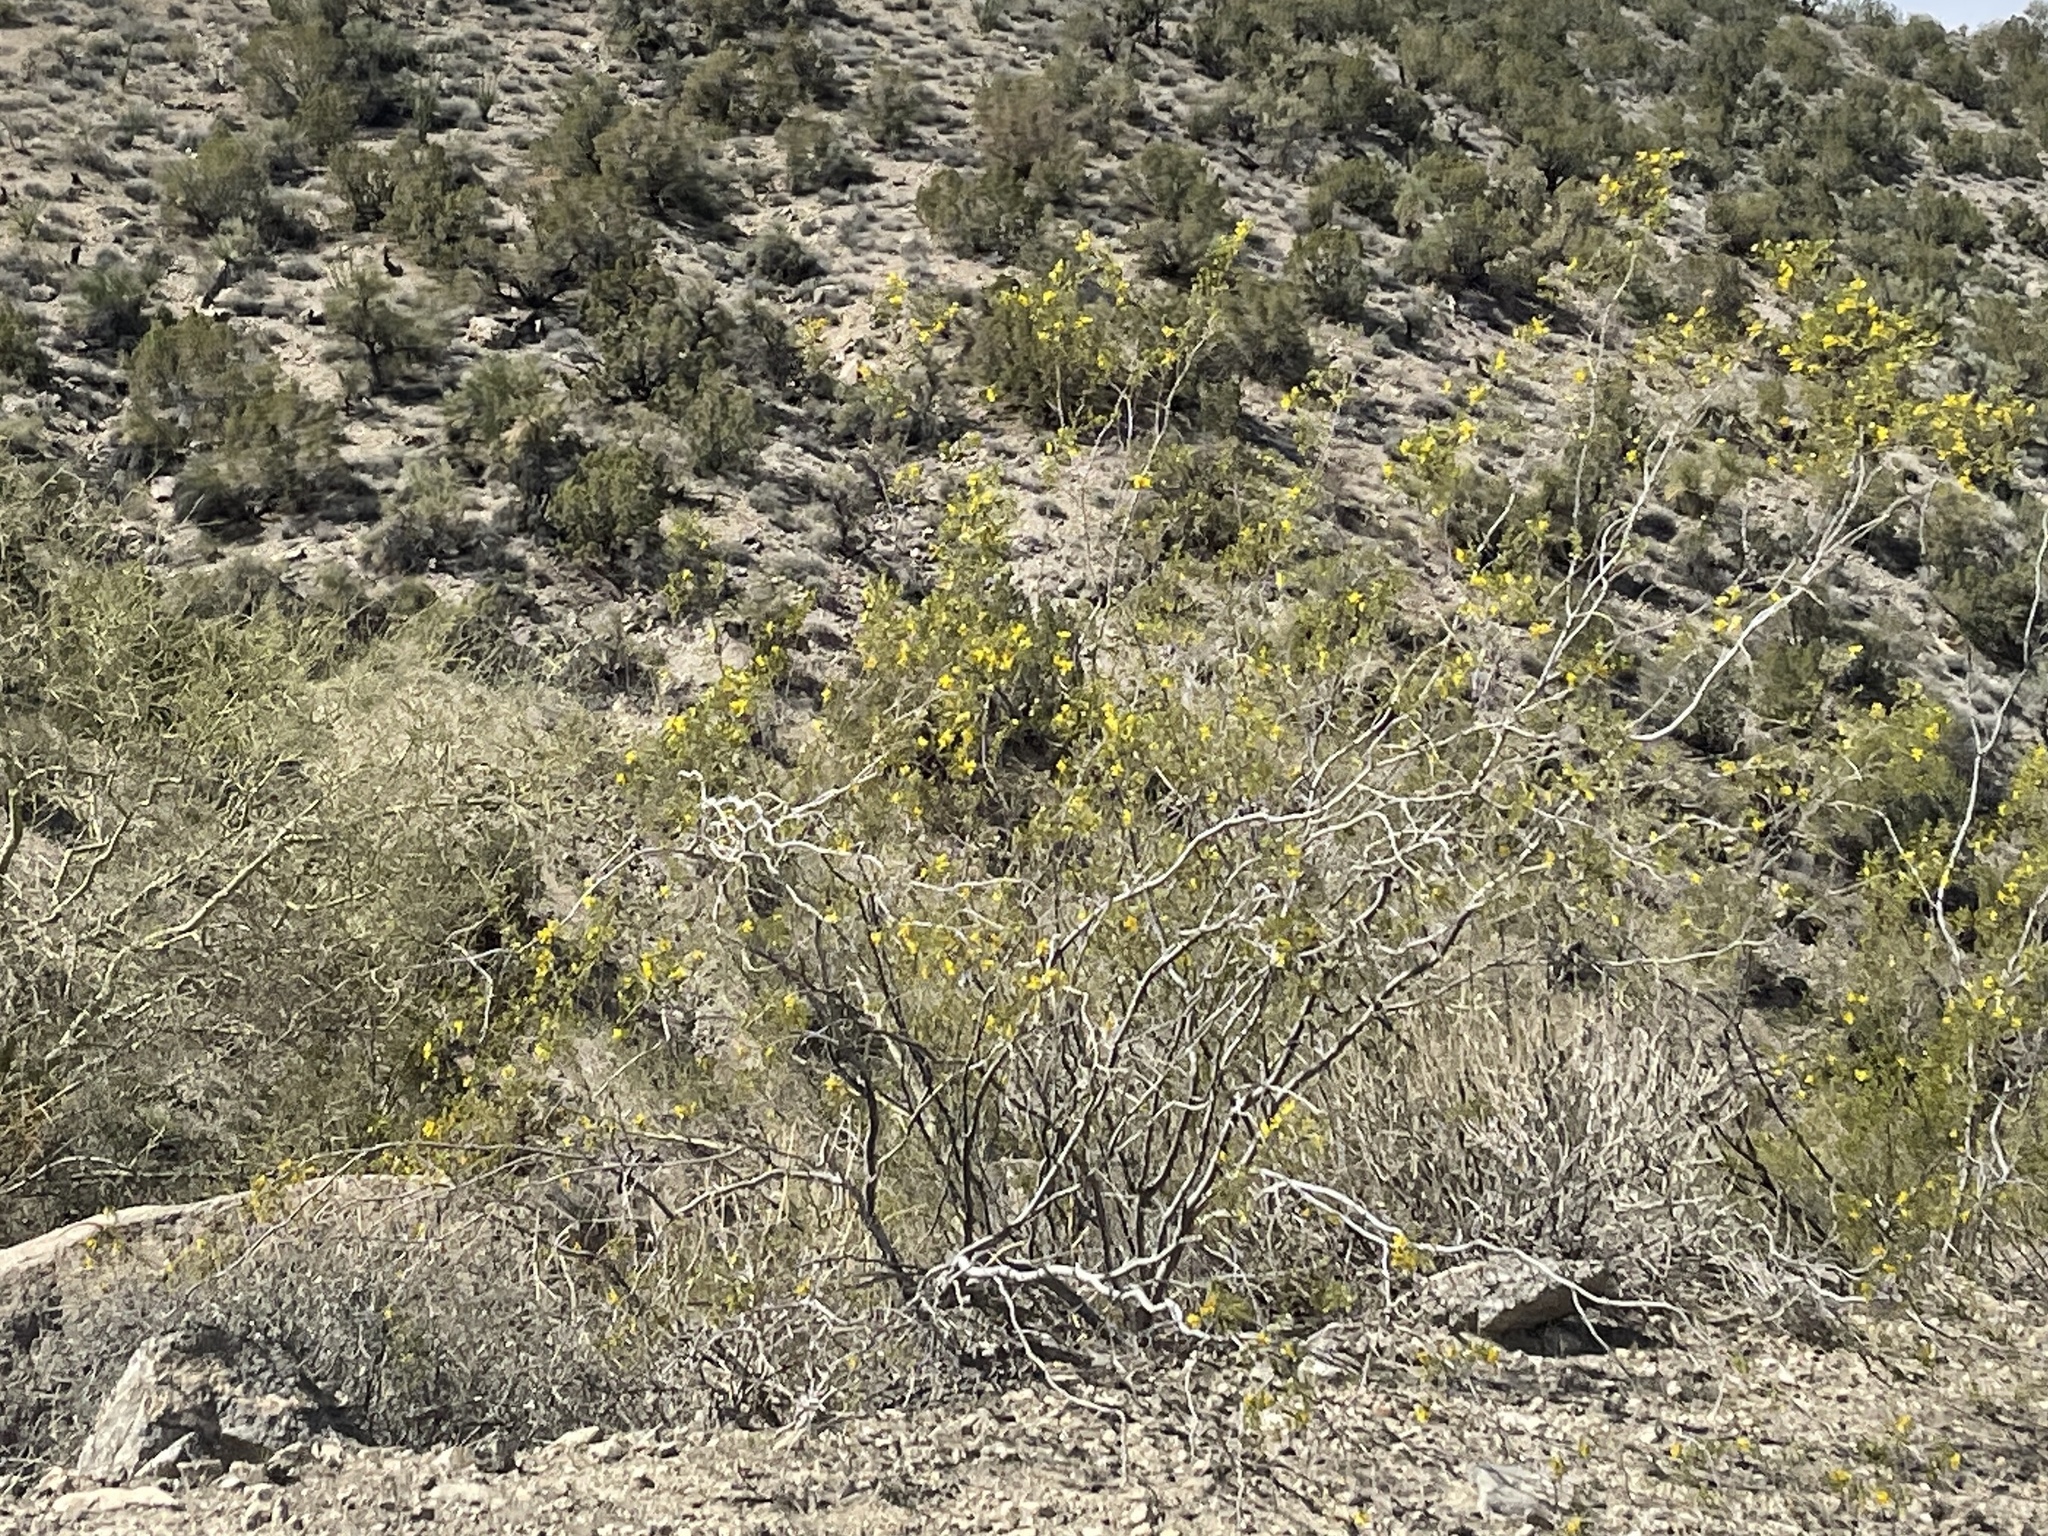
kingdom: Plantae
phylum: Tracheophyta
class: Magnoliopsida
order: Zygophyllales
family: Zygophyllaceae
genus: Larrea
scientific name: Larrea tridentata
